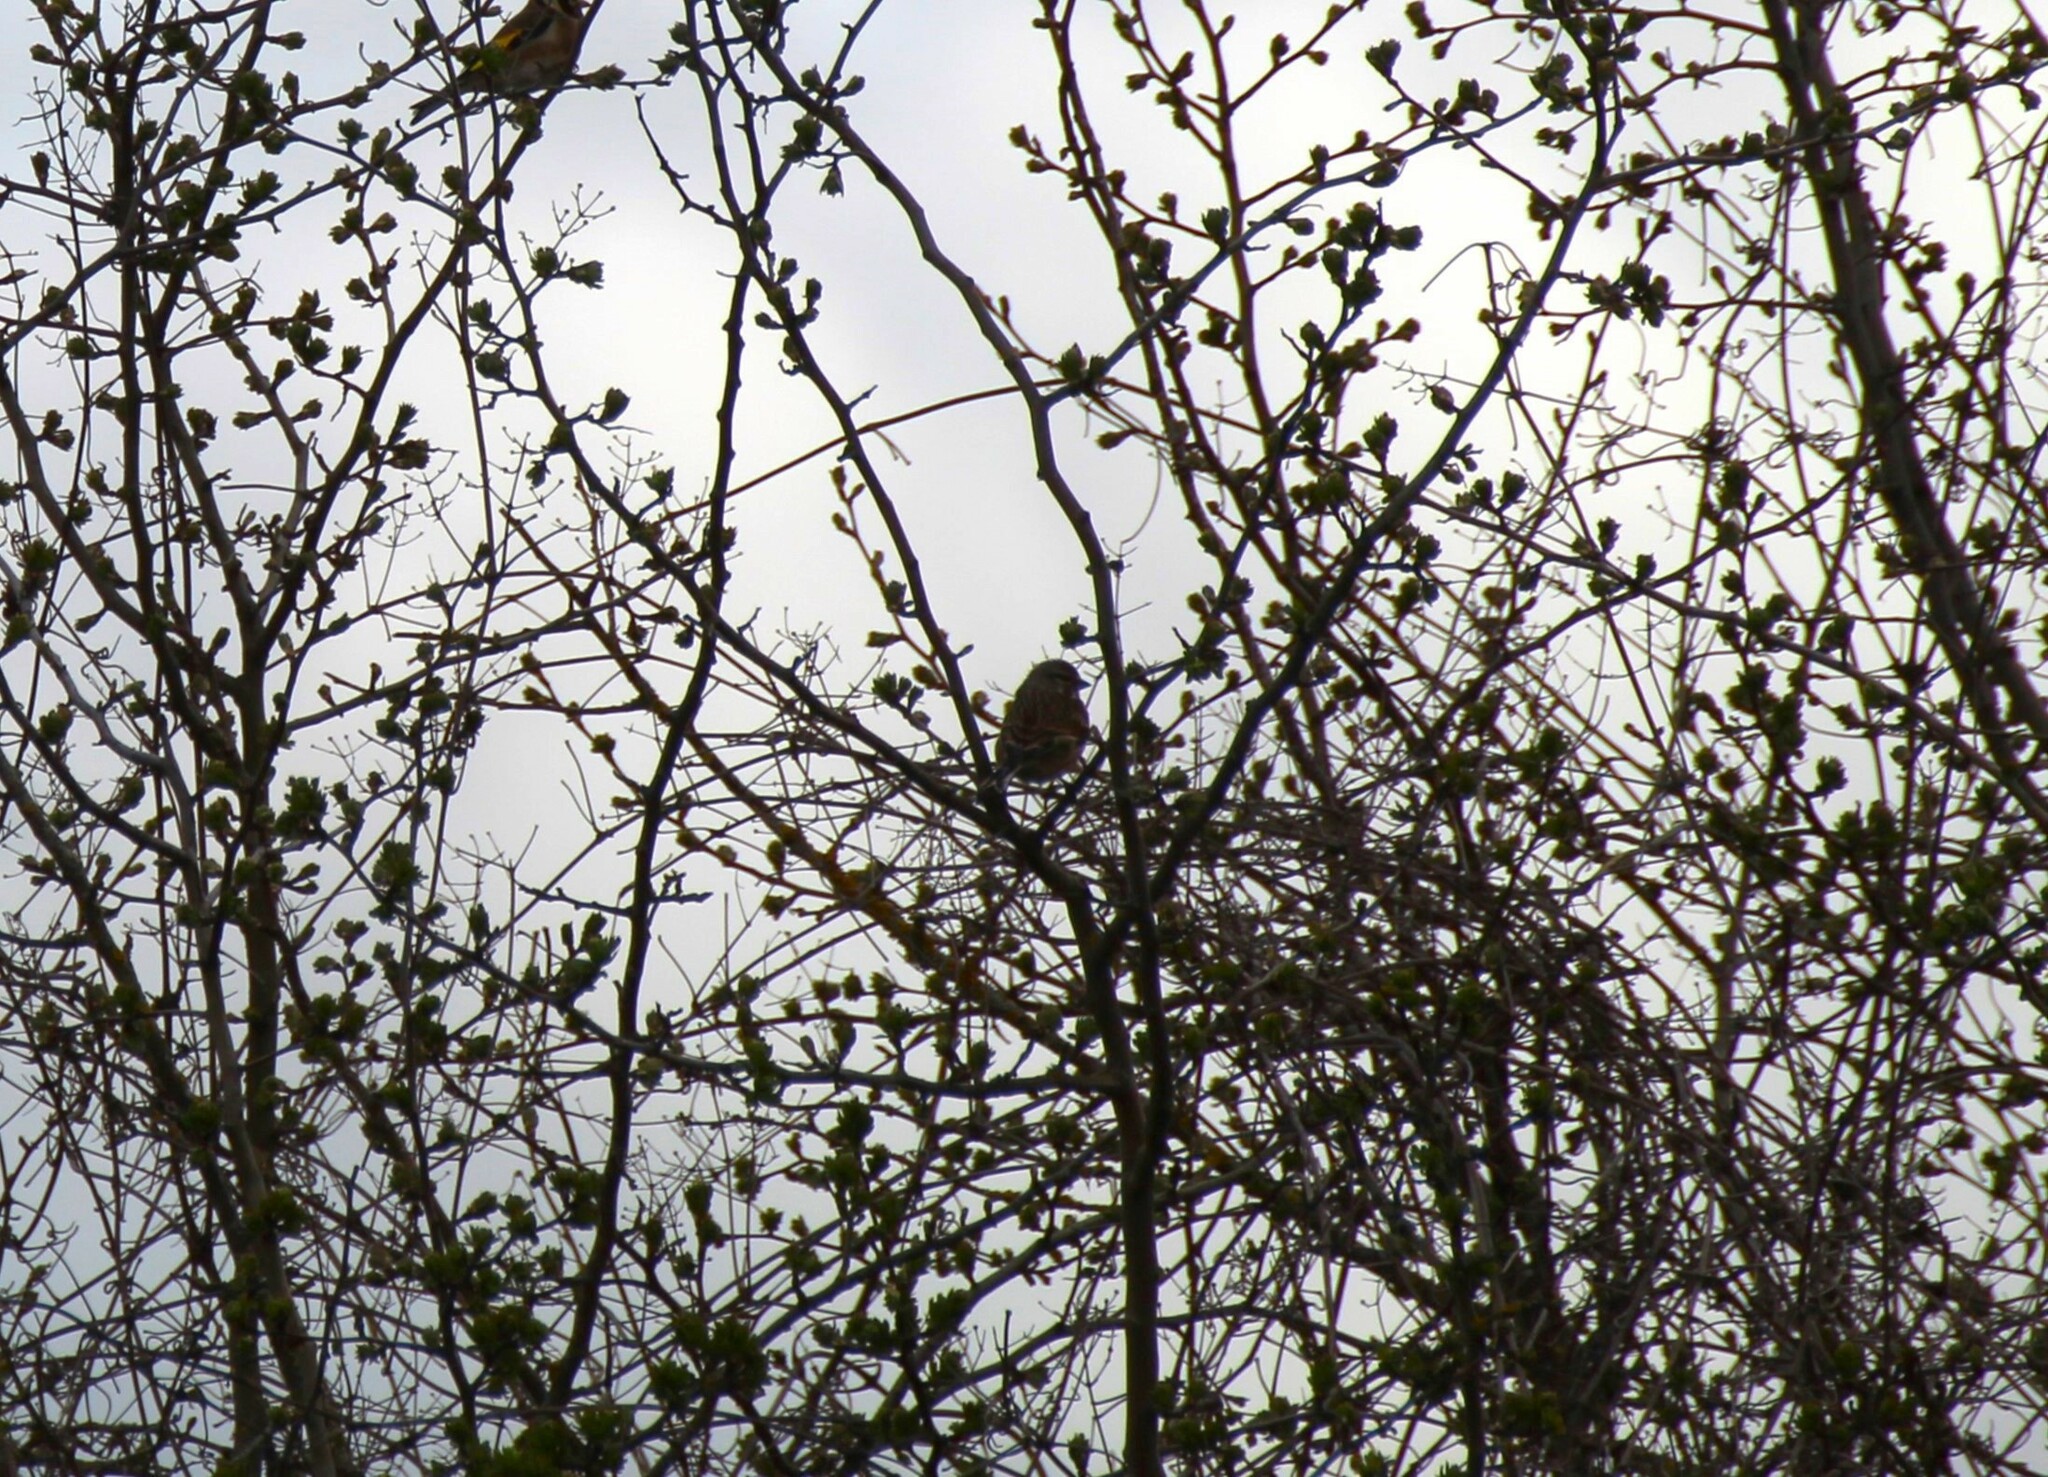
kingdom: Animalia
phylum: Chordata
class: Aves
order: Passeriformes
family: Fringillidae
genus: Linaria
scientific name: Linaria cannabina
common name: Common linnet
